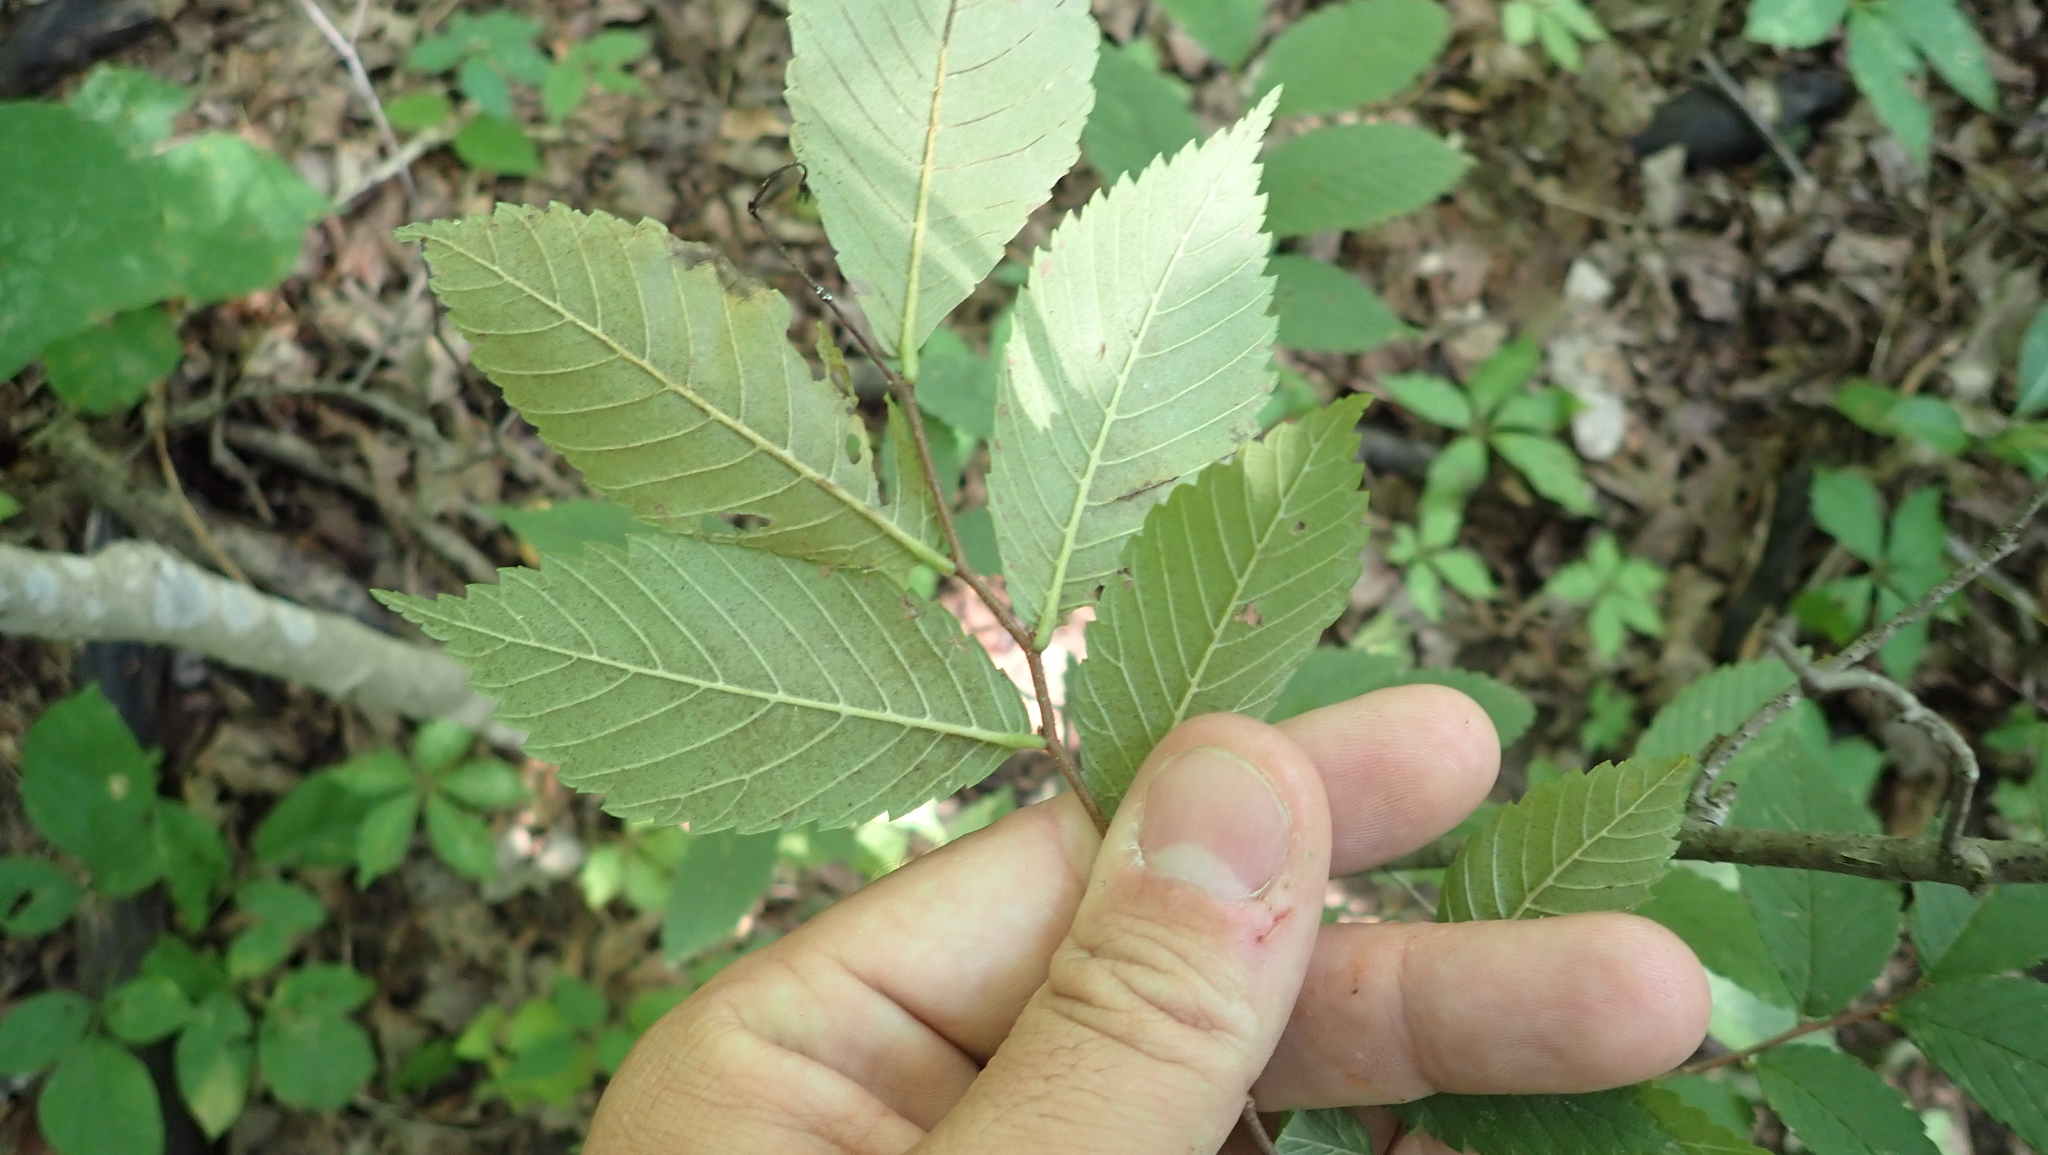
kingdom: Plantae
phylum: Tracheophyta
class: Magnoliopsida
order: Rosales
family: Ulmaceae
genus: Ulmus
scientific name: Ulmus americana
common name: American elm
